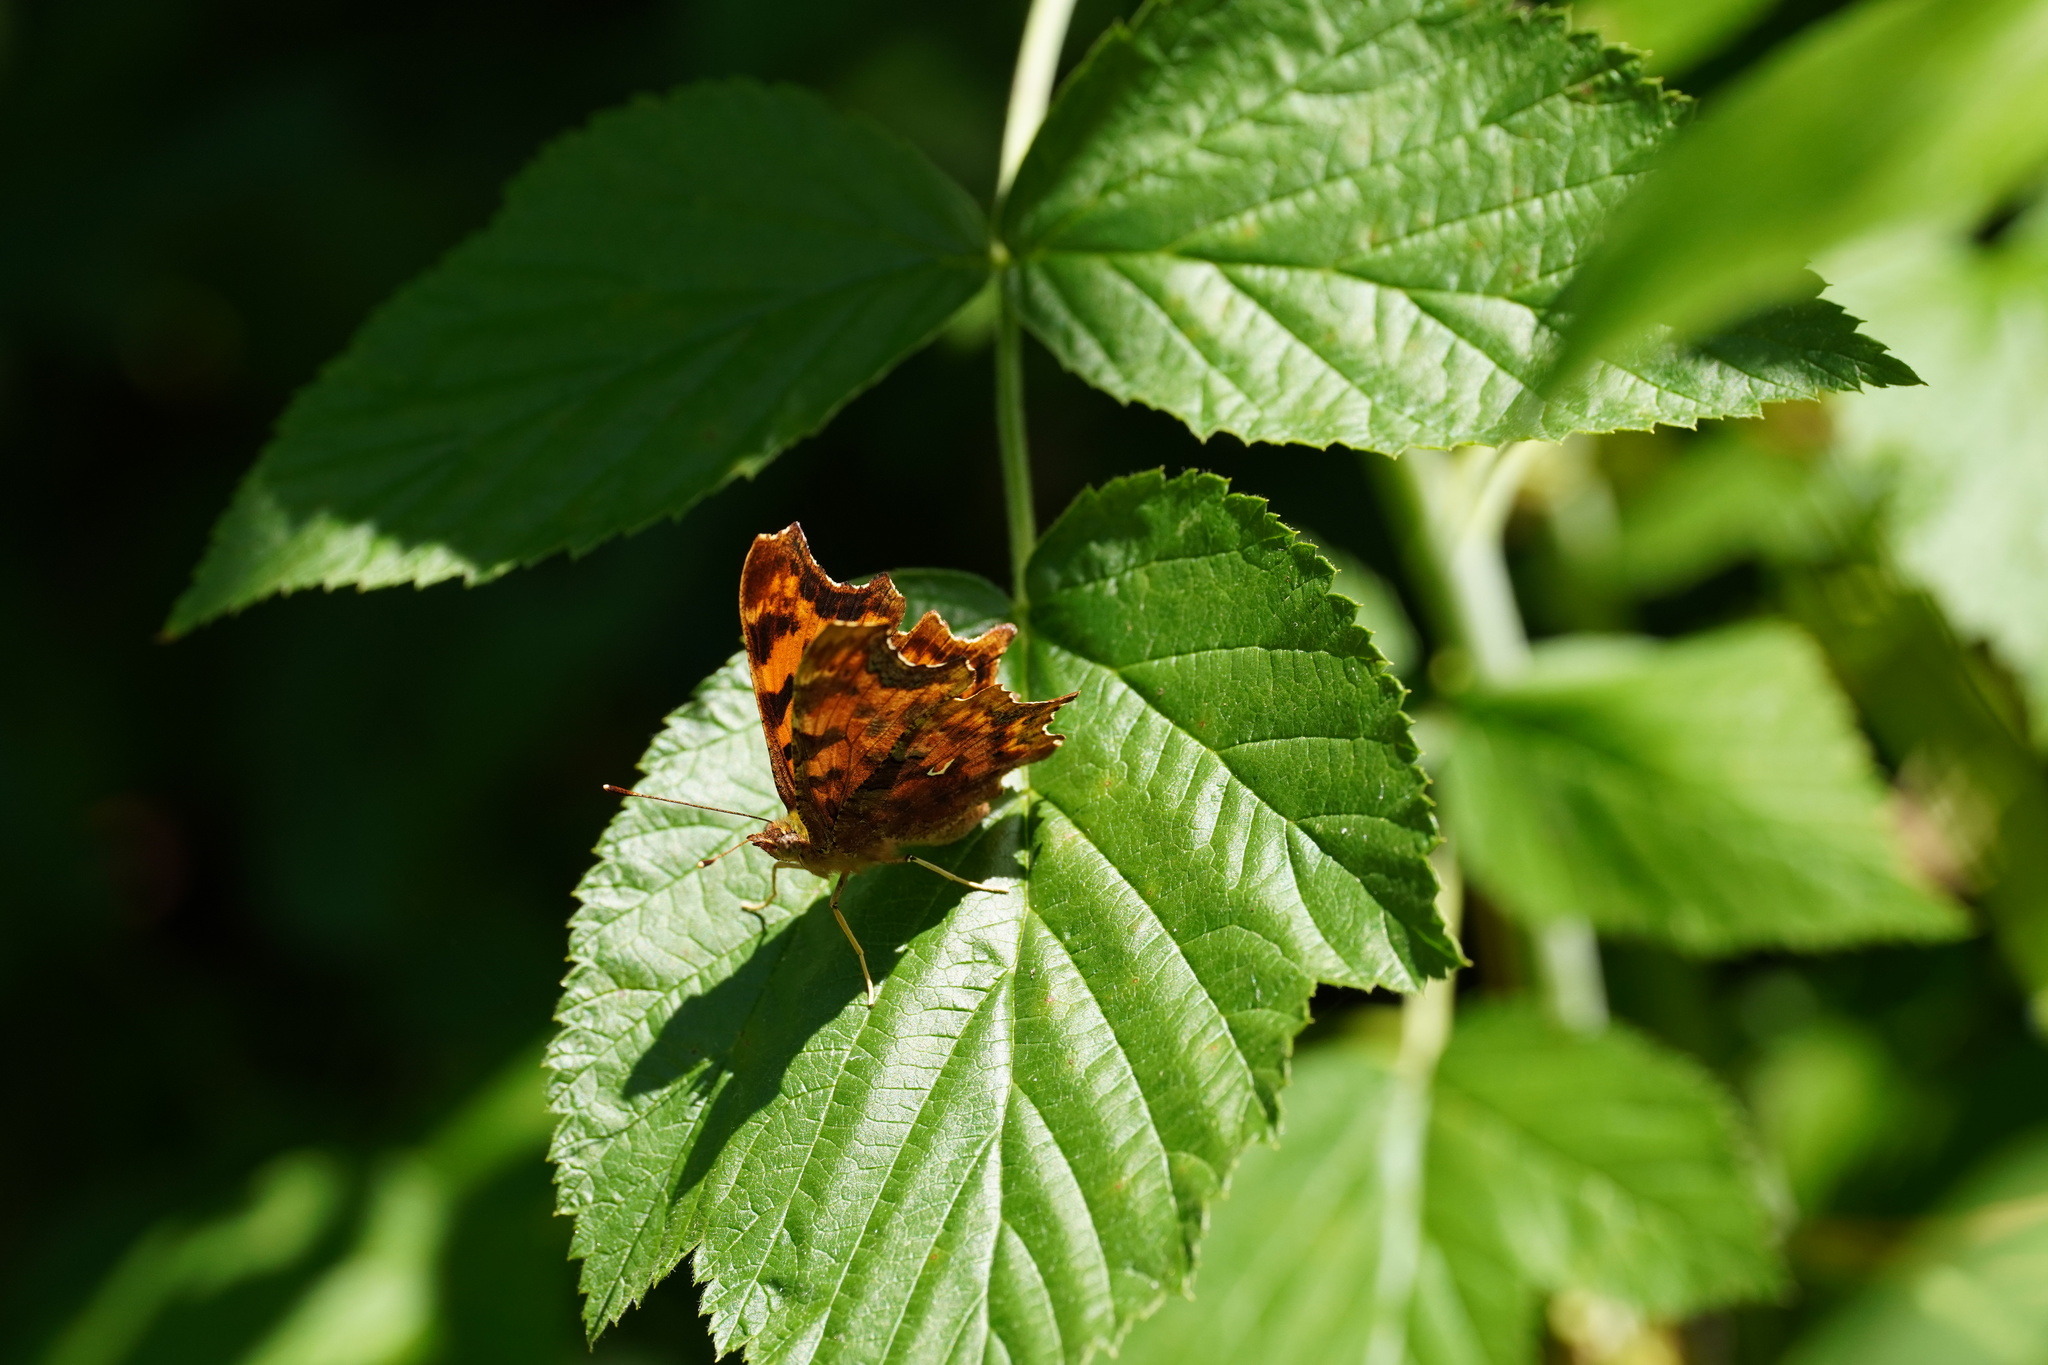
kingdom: Animalia
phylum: Arthropoda
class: Insecta
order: Lepidoptera
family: Nymphalidae
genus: Polygonia
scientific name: Polygonia c-album
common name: Comma
